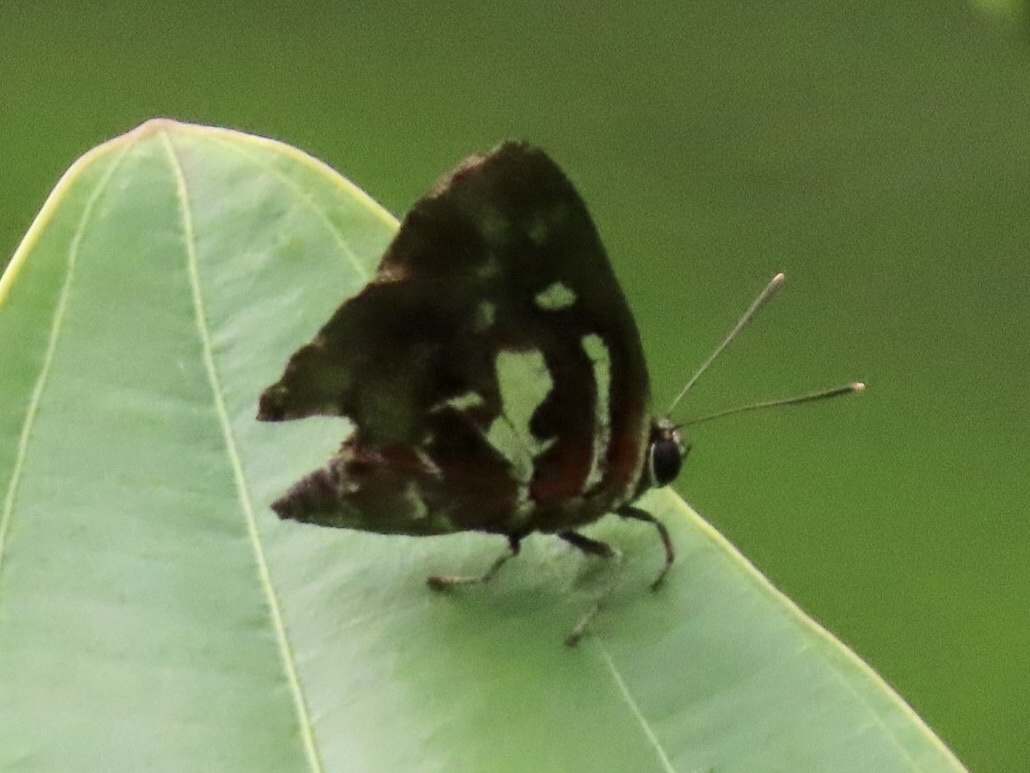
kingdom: Animalia
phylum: Arthropoda
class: Insecta
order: Lepidoptera
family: Lycaenidae
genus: Iraota
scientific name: Iraota timoleon
